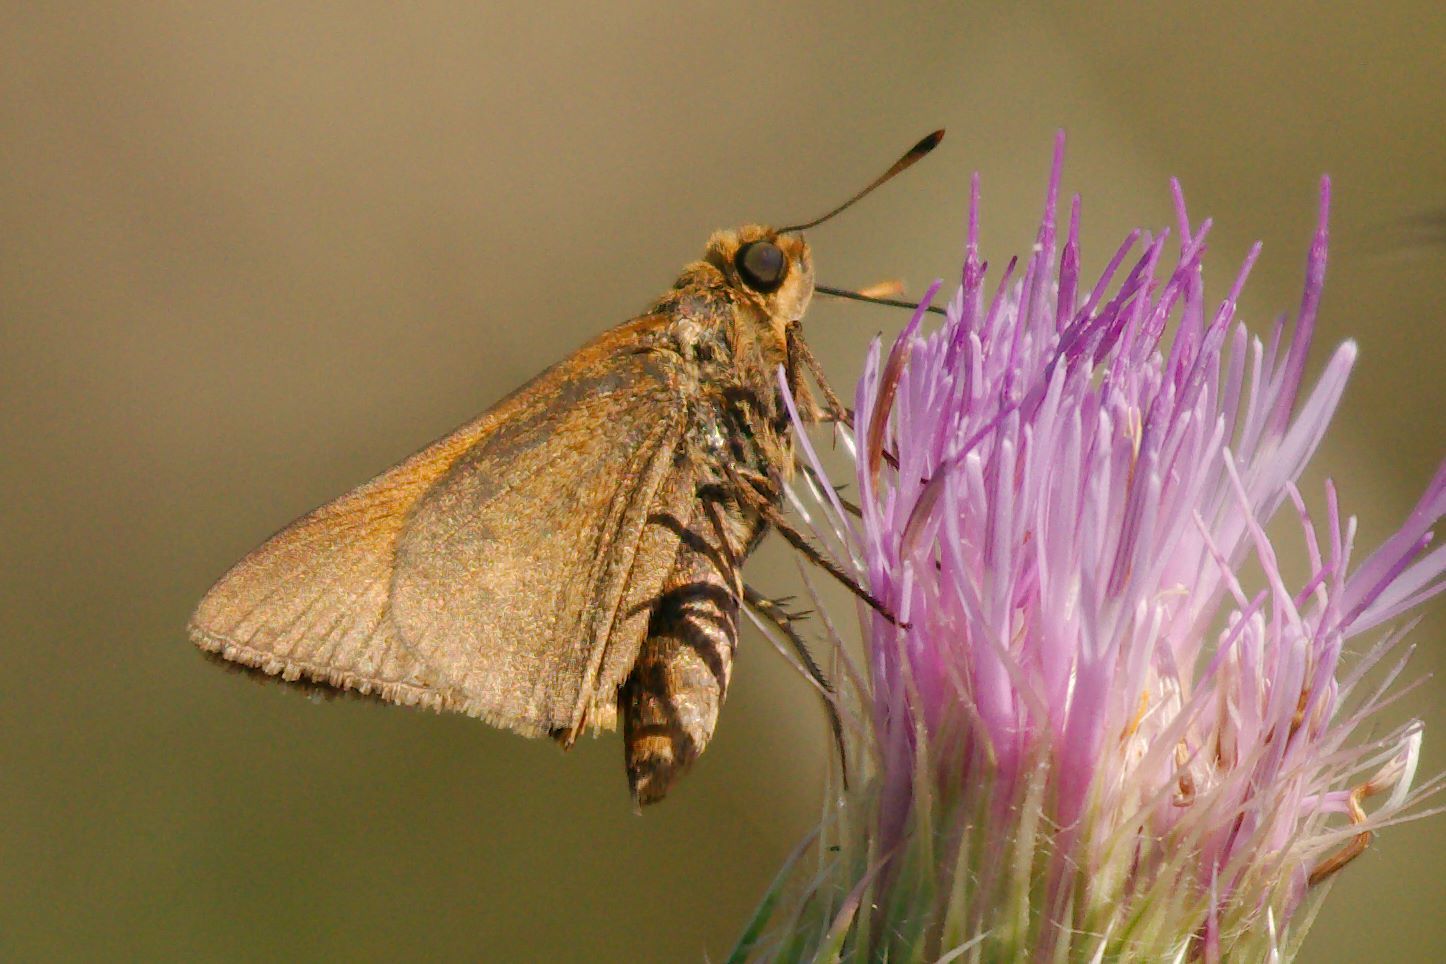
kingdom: Animalia
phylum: Arthropoda
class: Insecta
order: Lepidoptera
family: Hesperiidae
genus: Euphyes
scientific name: Euphyes pilatka
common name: Palatka skipper
